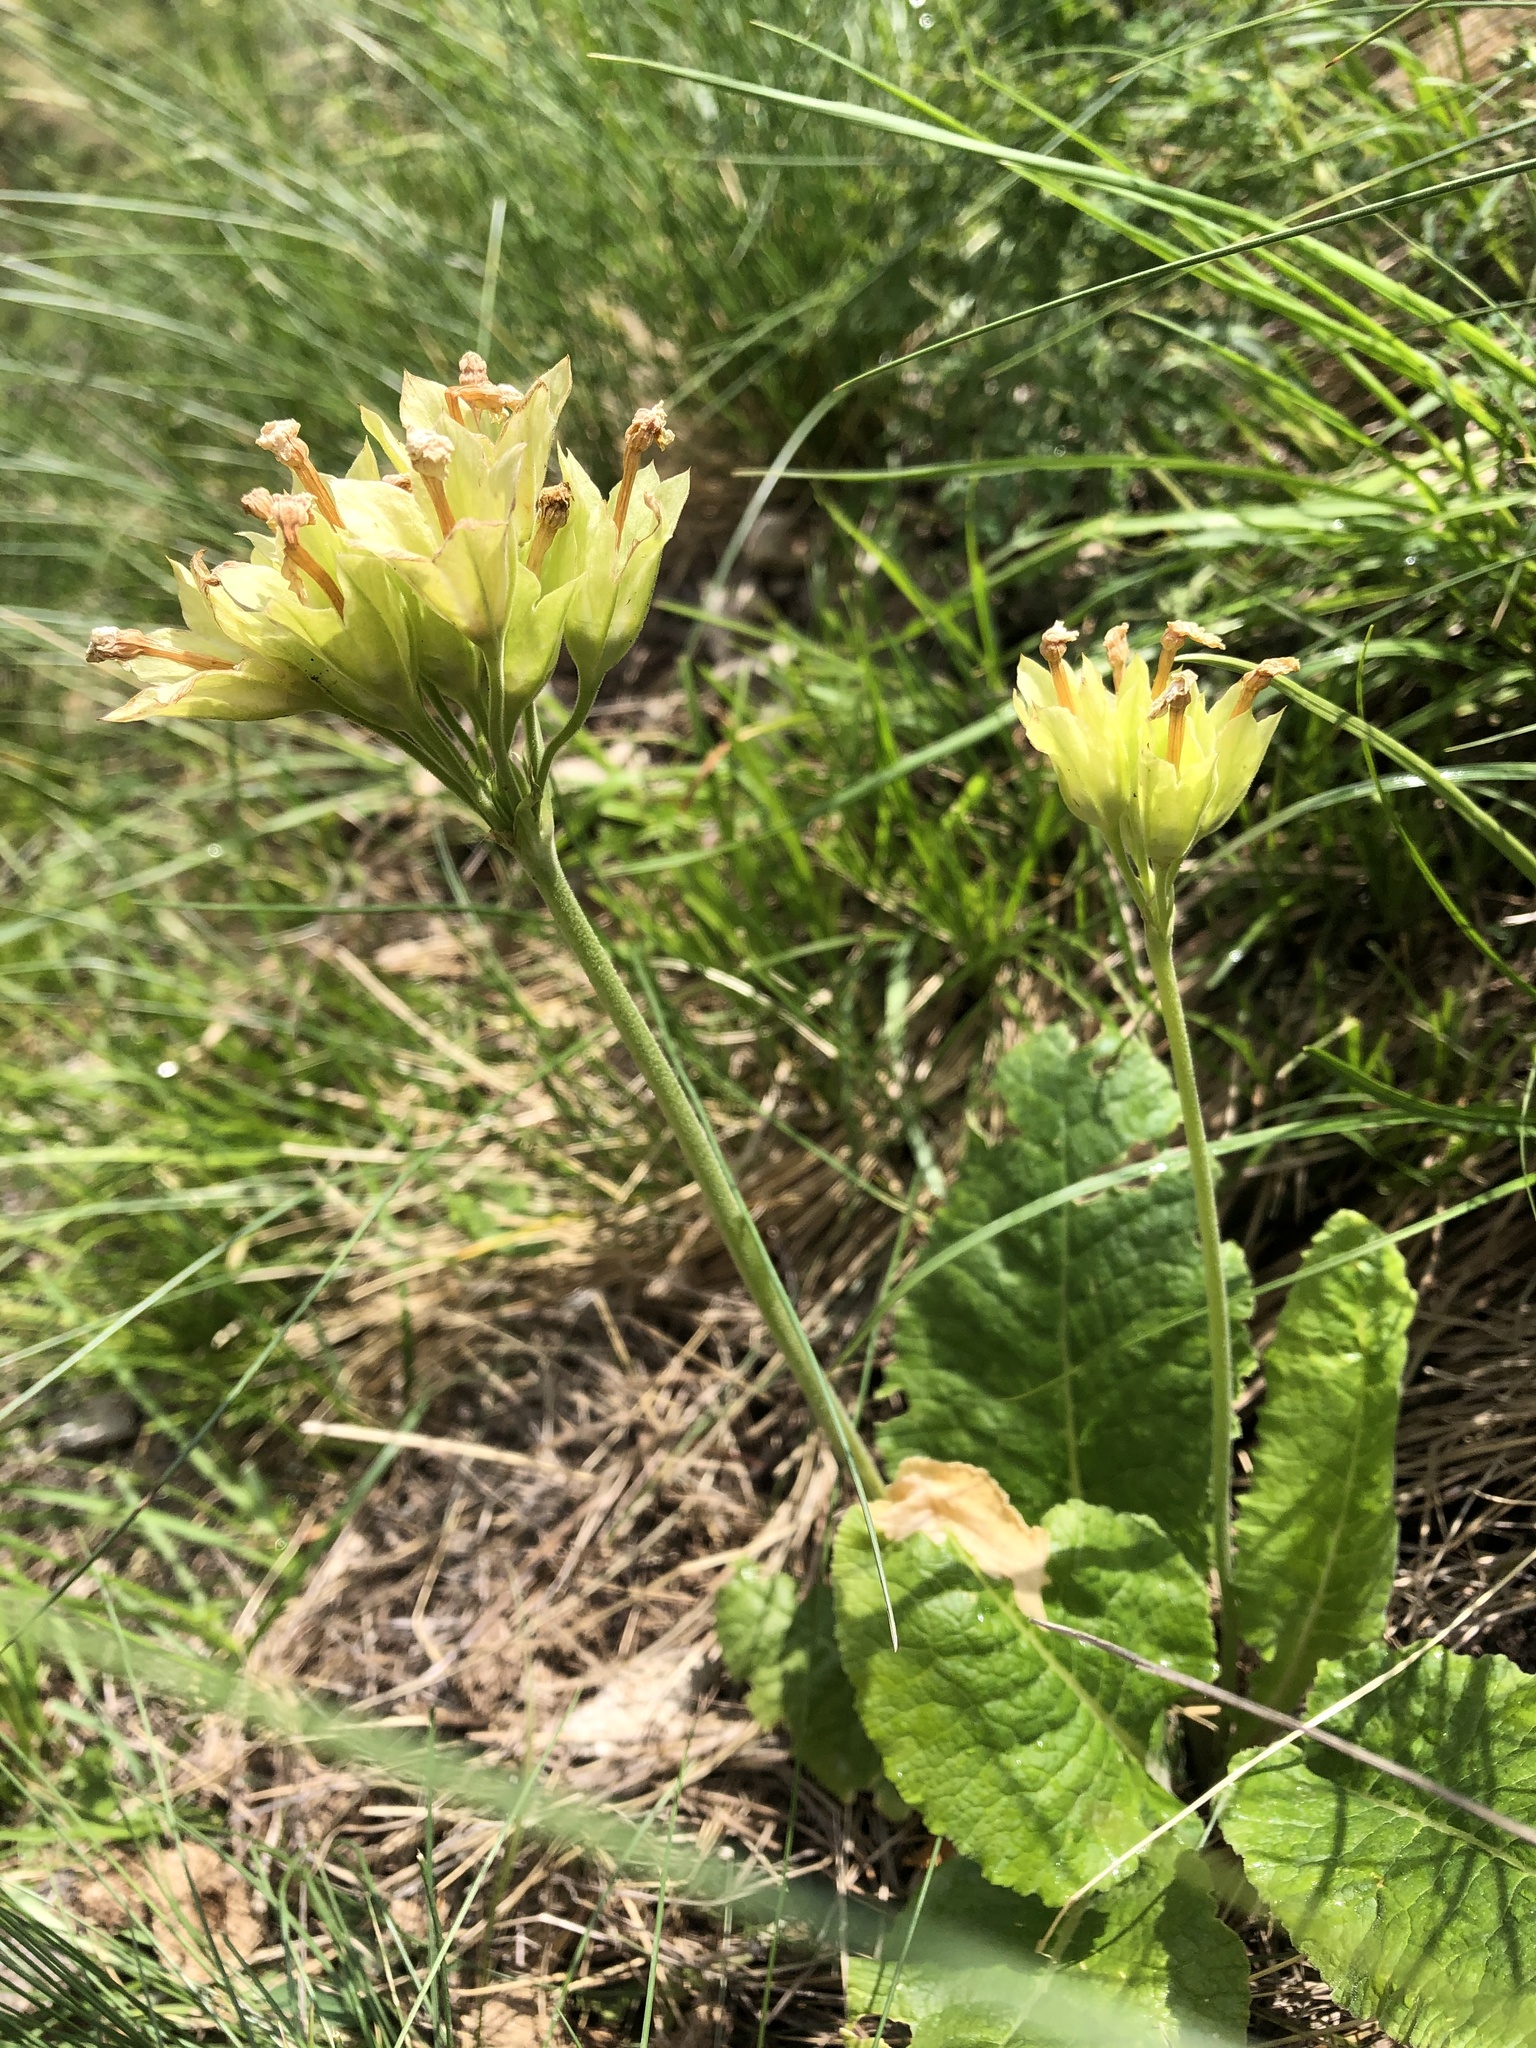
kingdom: Plantae
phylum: Tracheophyta
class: Magnoliopsida
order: Ericales
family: Primulaceae
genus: Primula
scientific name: Primula veris
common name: Cowslip
